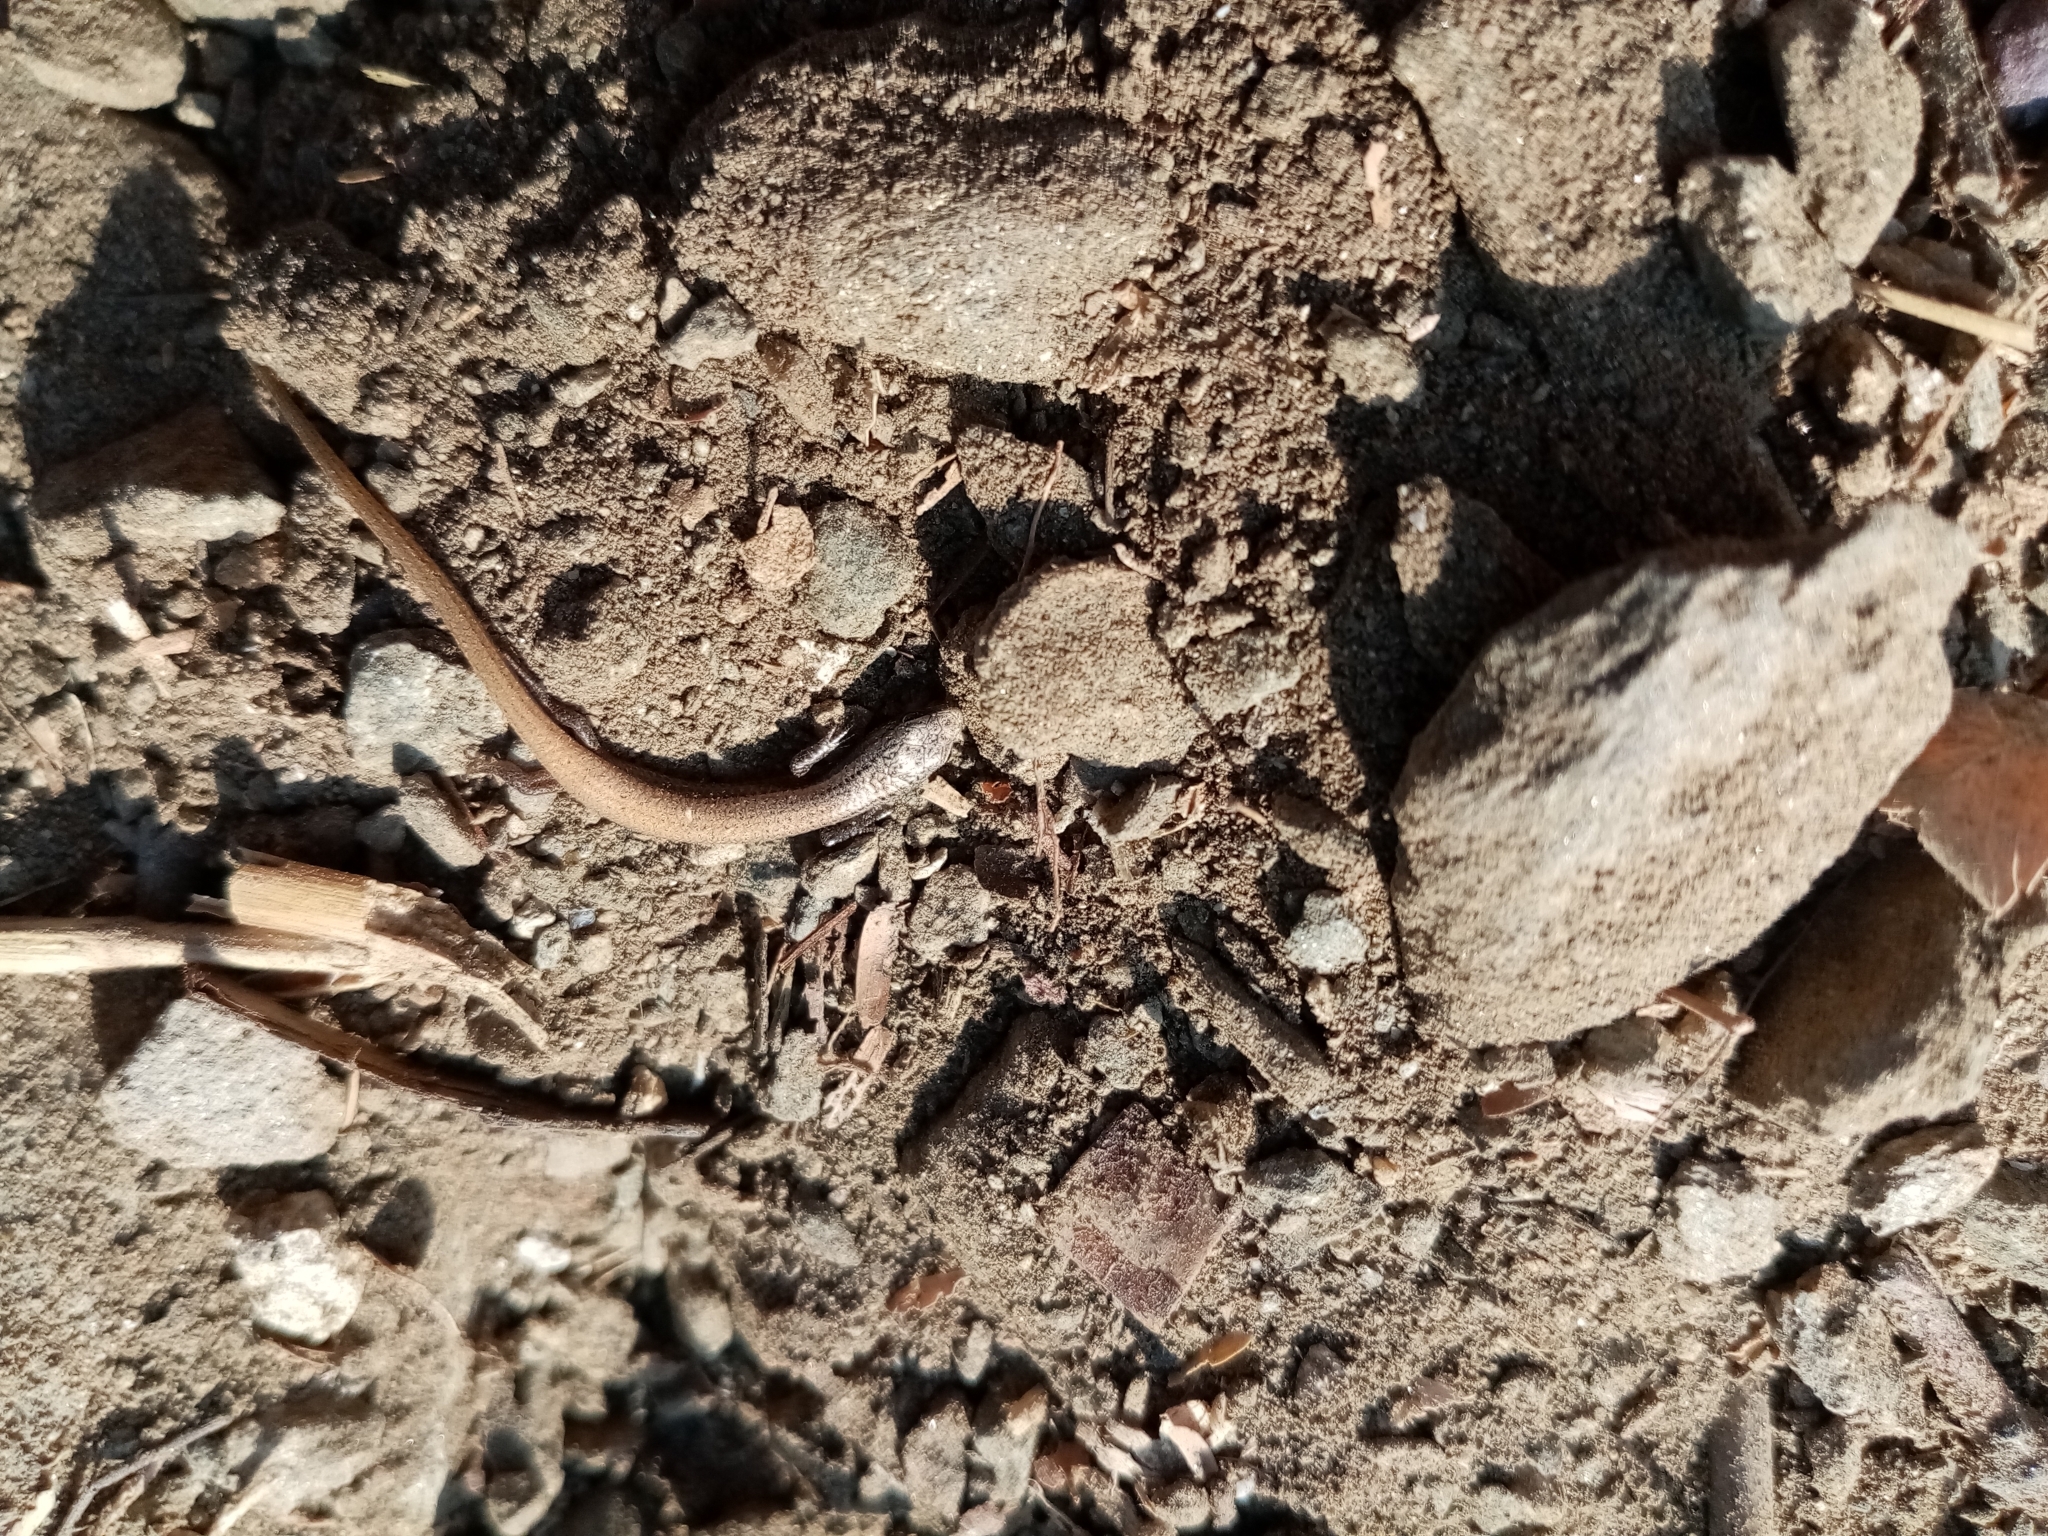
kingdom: Animalia
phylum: Chordata
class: Squamata
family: Gymnophthalmidae
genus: Gymnophthalmus
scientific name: Gymnophthalmus speciosus
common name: Golden spectacled tegu
